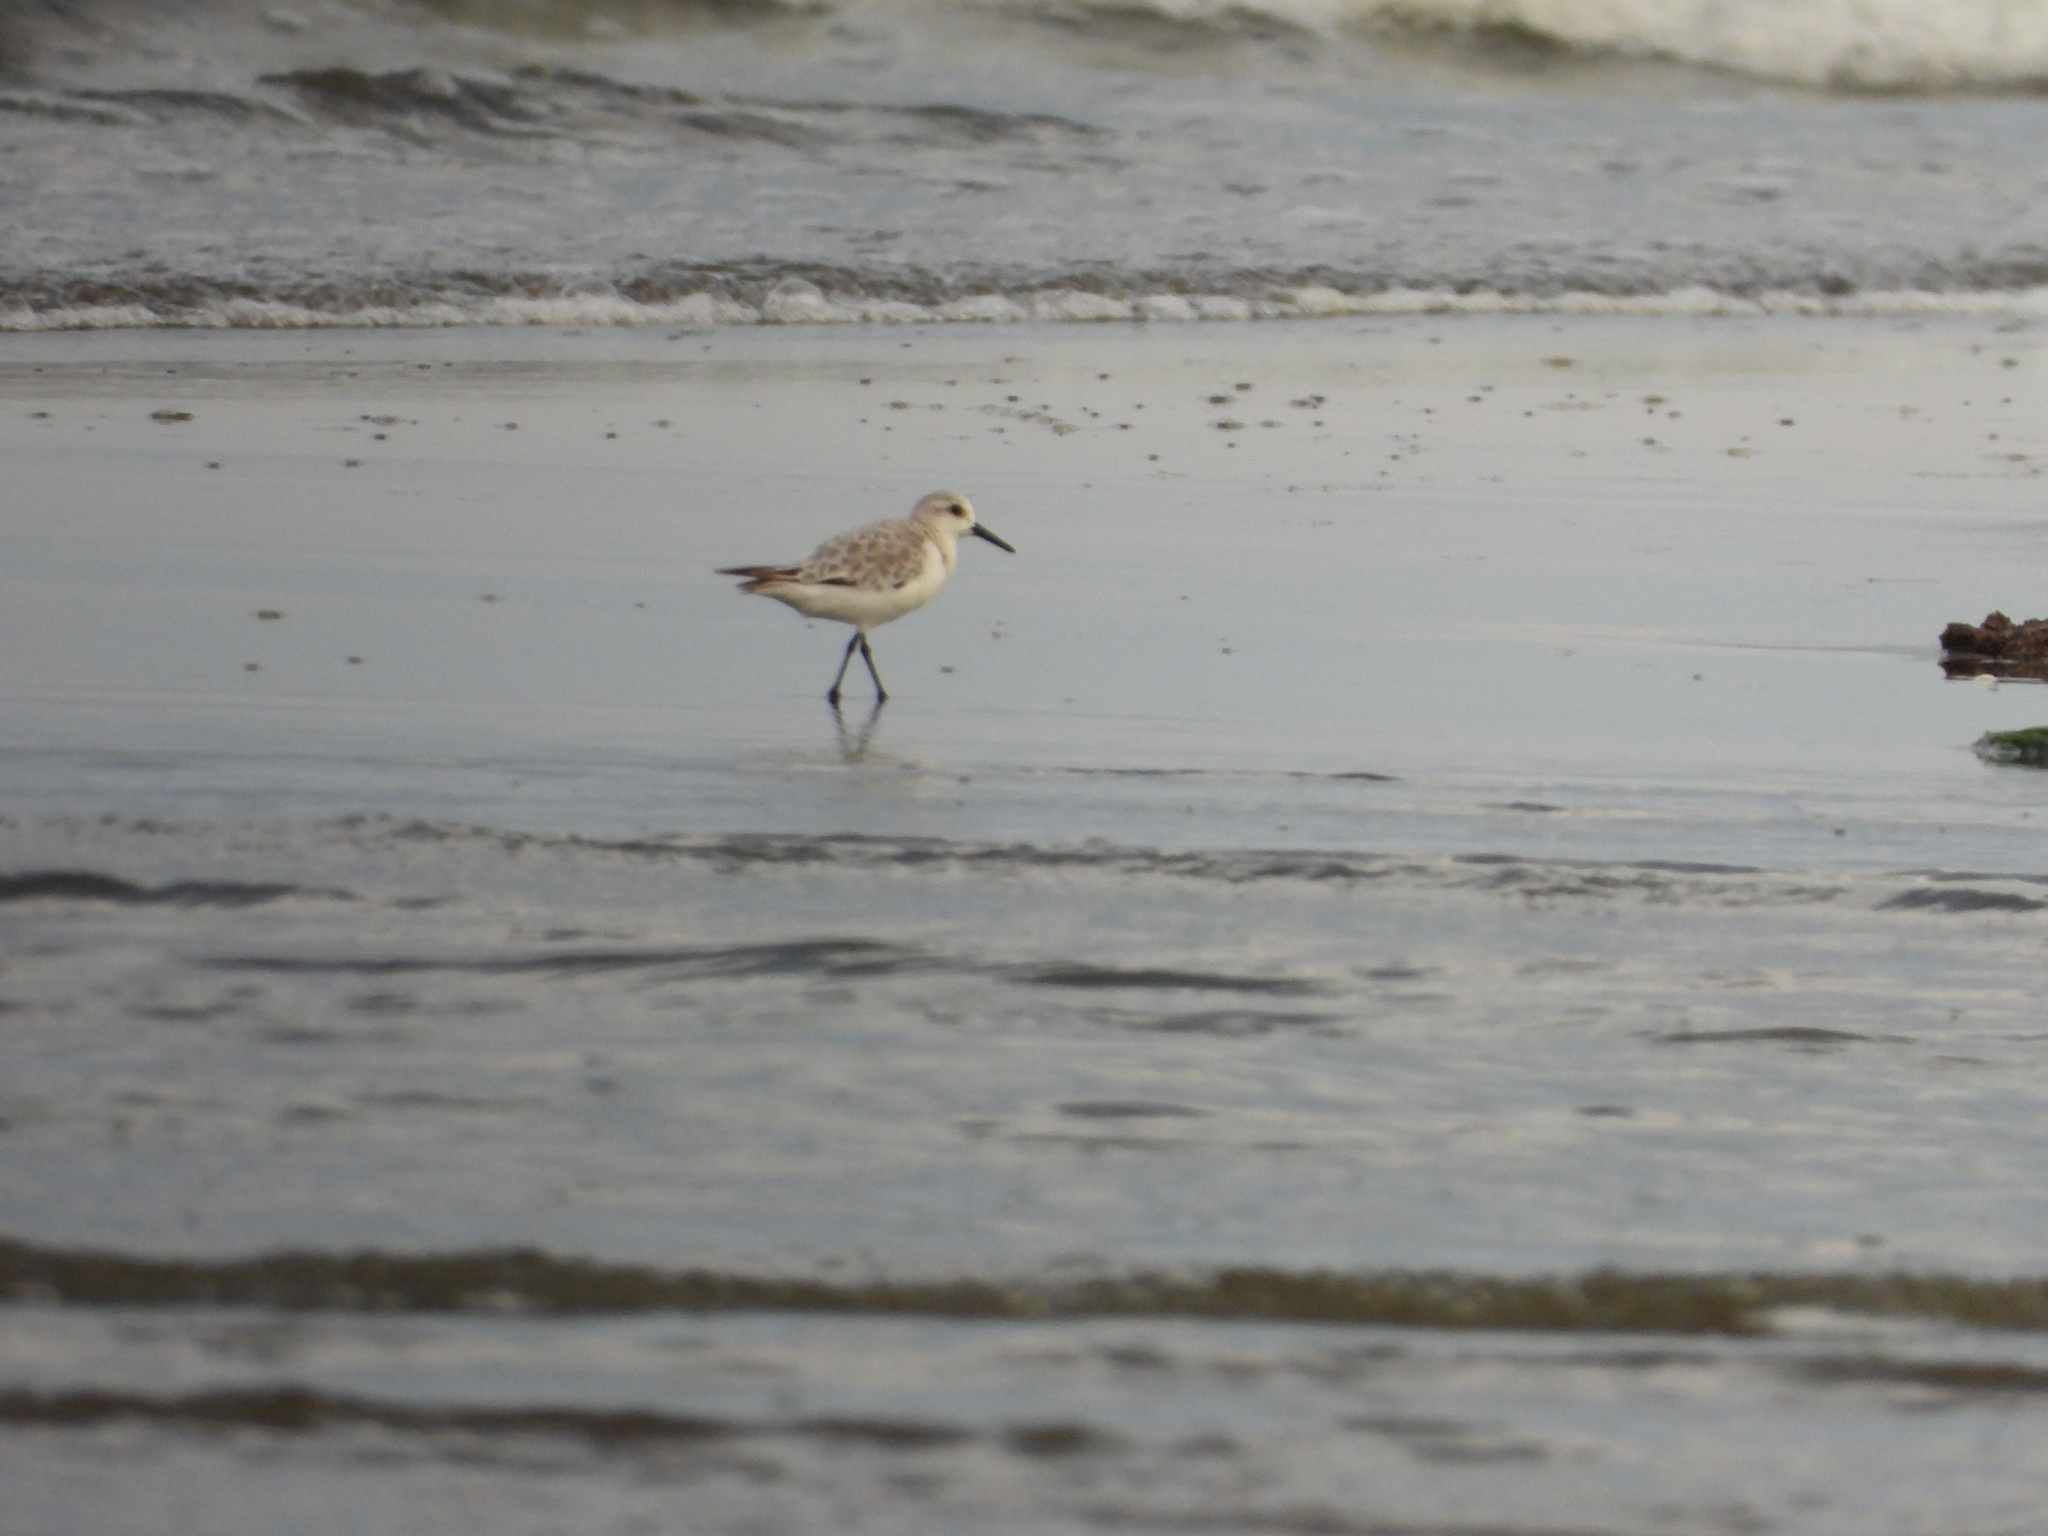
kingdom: Animalia
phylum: Chordata
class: Aves
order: Charadriiformes
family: Scolopacidae
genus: Calidris
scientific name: Calidris alba
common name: Sanderling
